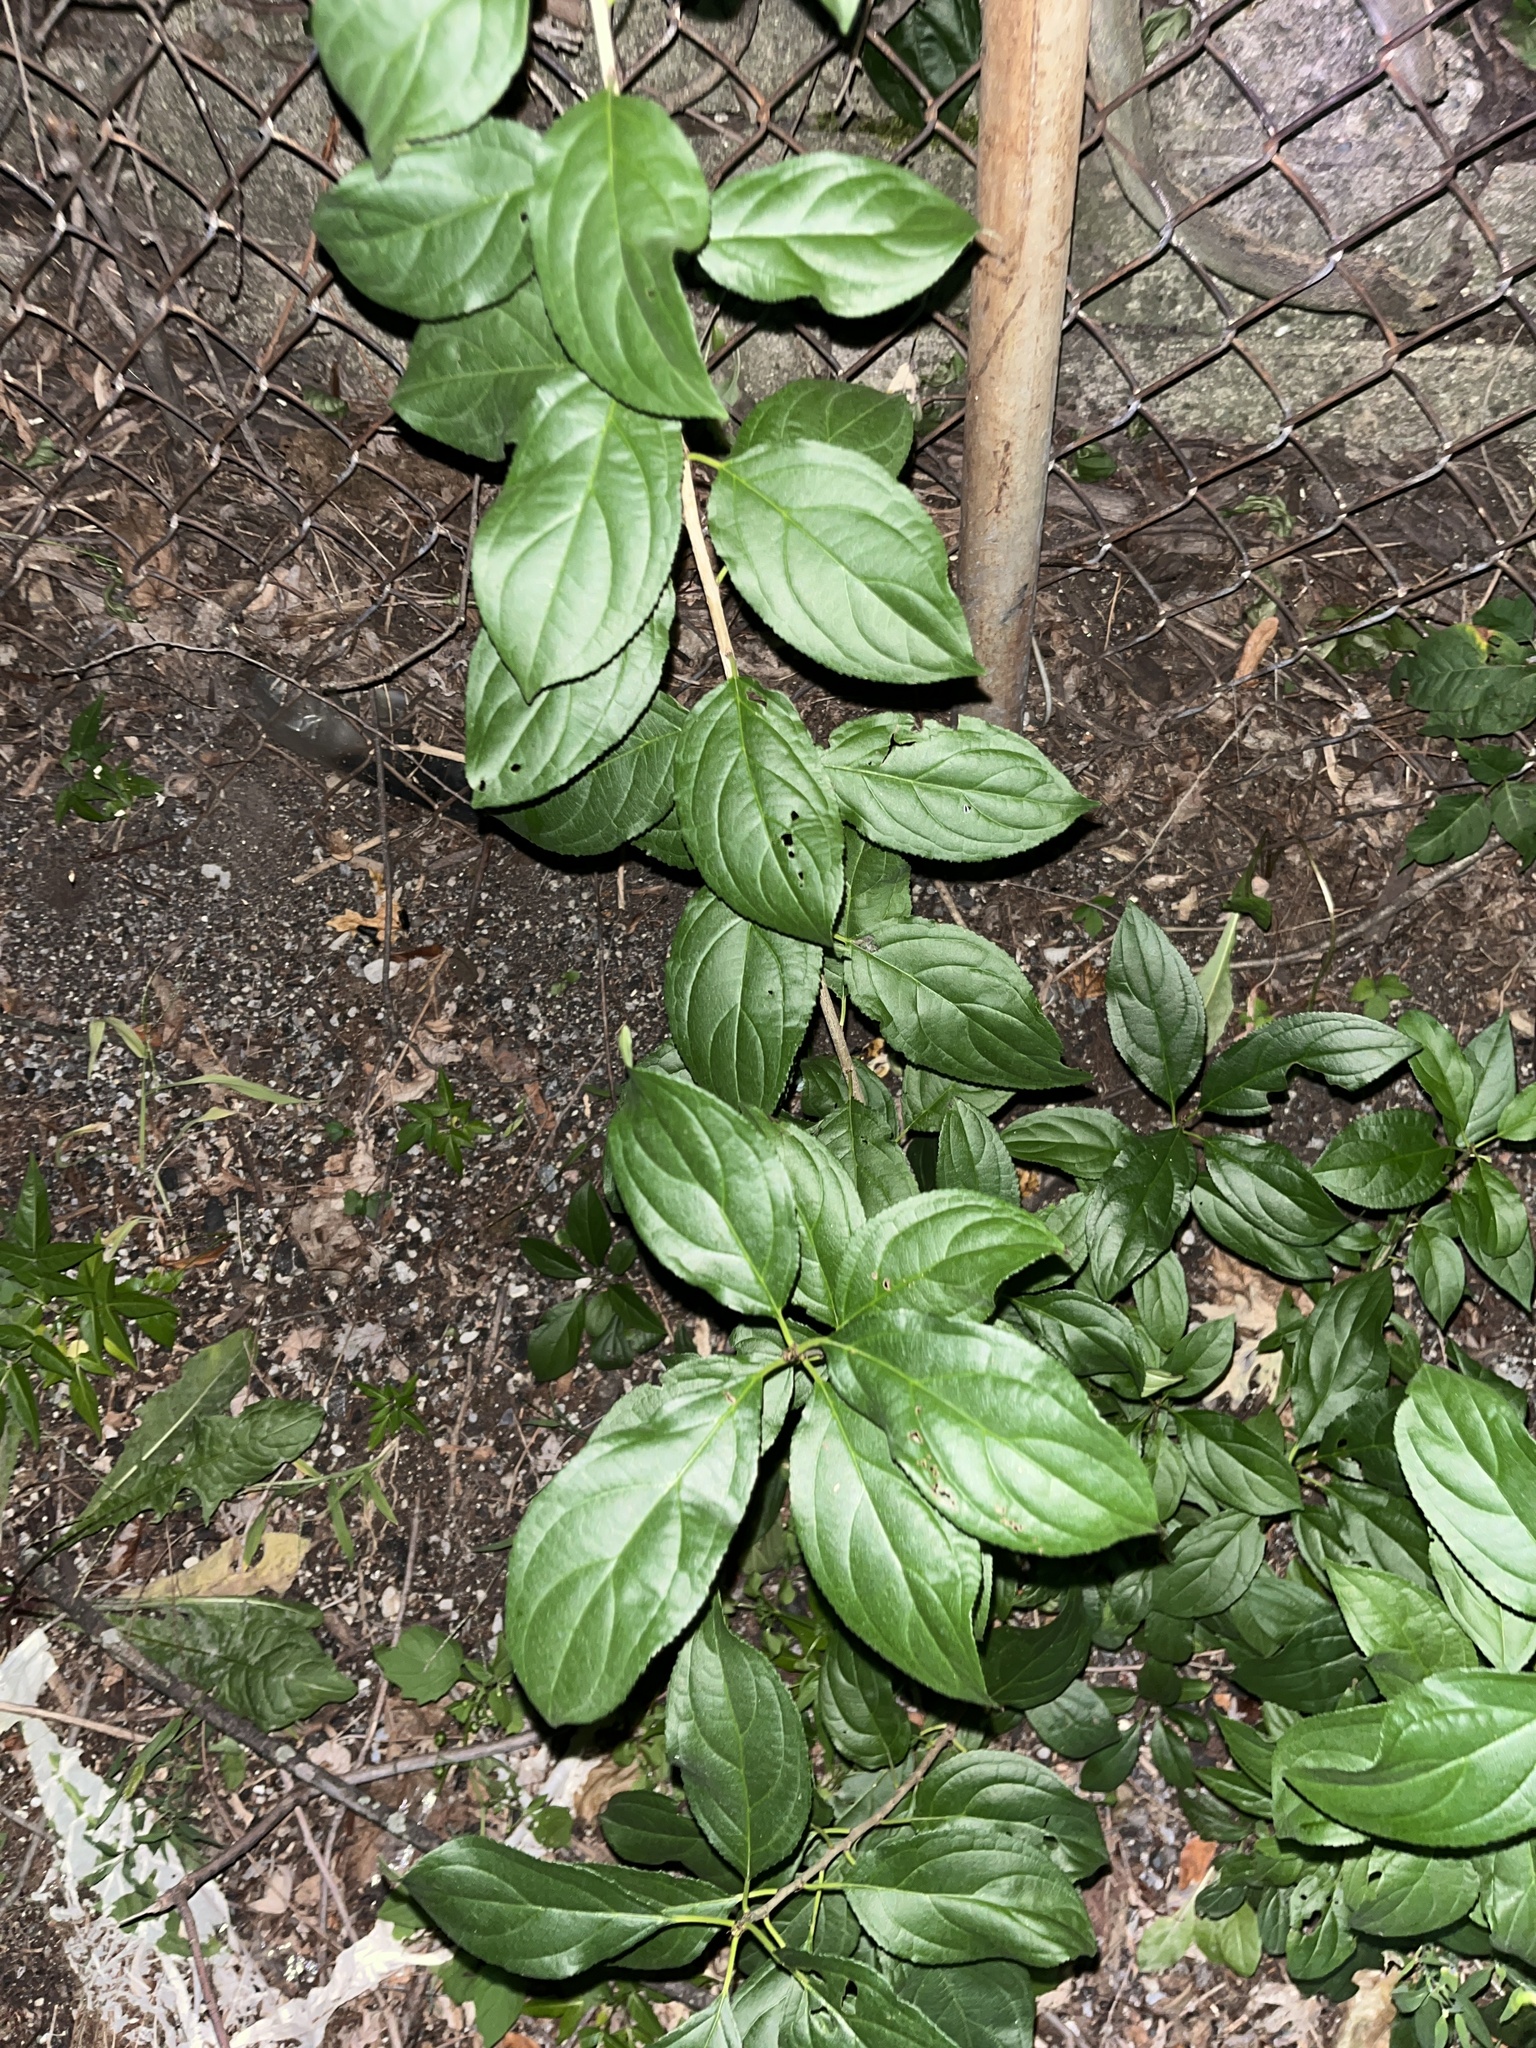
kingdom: Plantae
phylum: Tracheophyta
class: Magnoliopsida
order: Rosales
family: Rhamnaceae
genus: Rhamnus
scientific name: Rhamnus cathartica
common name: Common buckthorn
